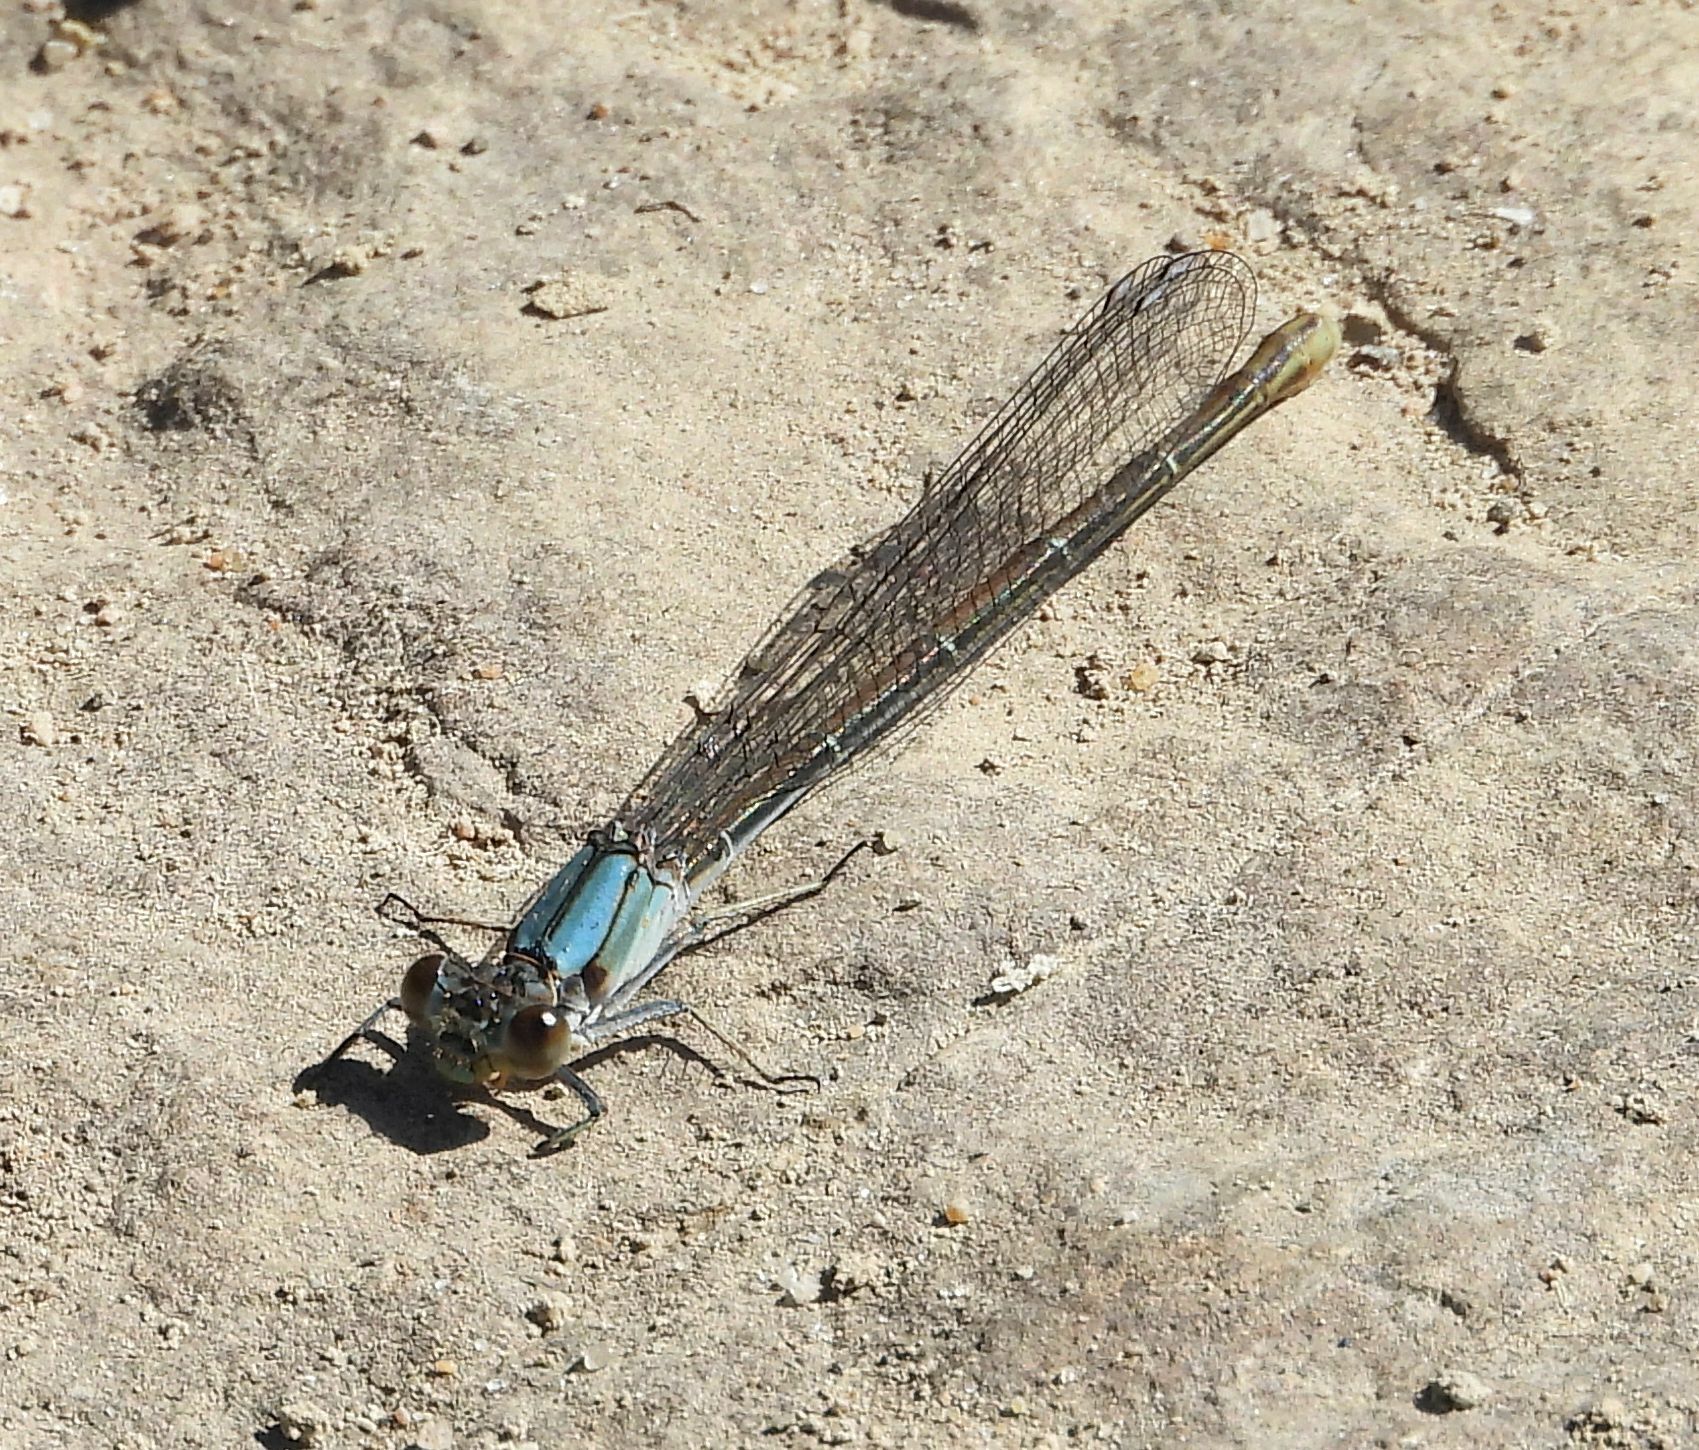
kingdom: Animalia
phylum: Arthropoda
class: Insecta
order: Odonata
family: Coenagrionidae
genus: Argia
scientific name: Argia moesta
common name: Powdered dancer
